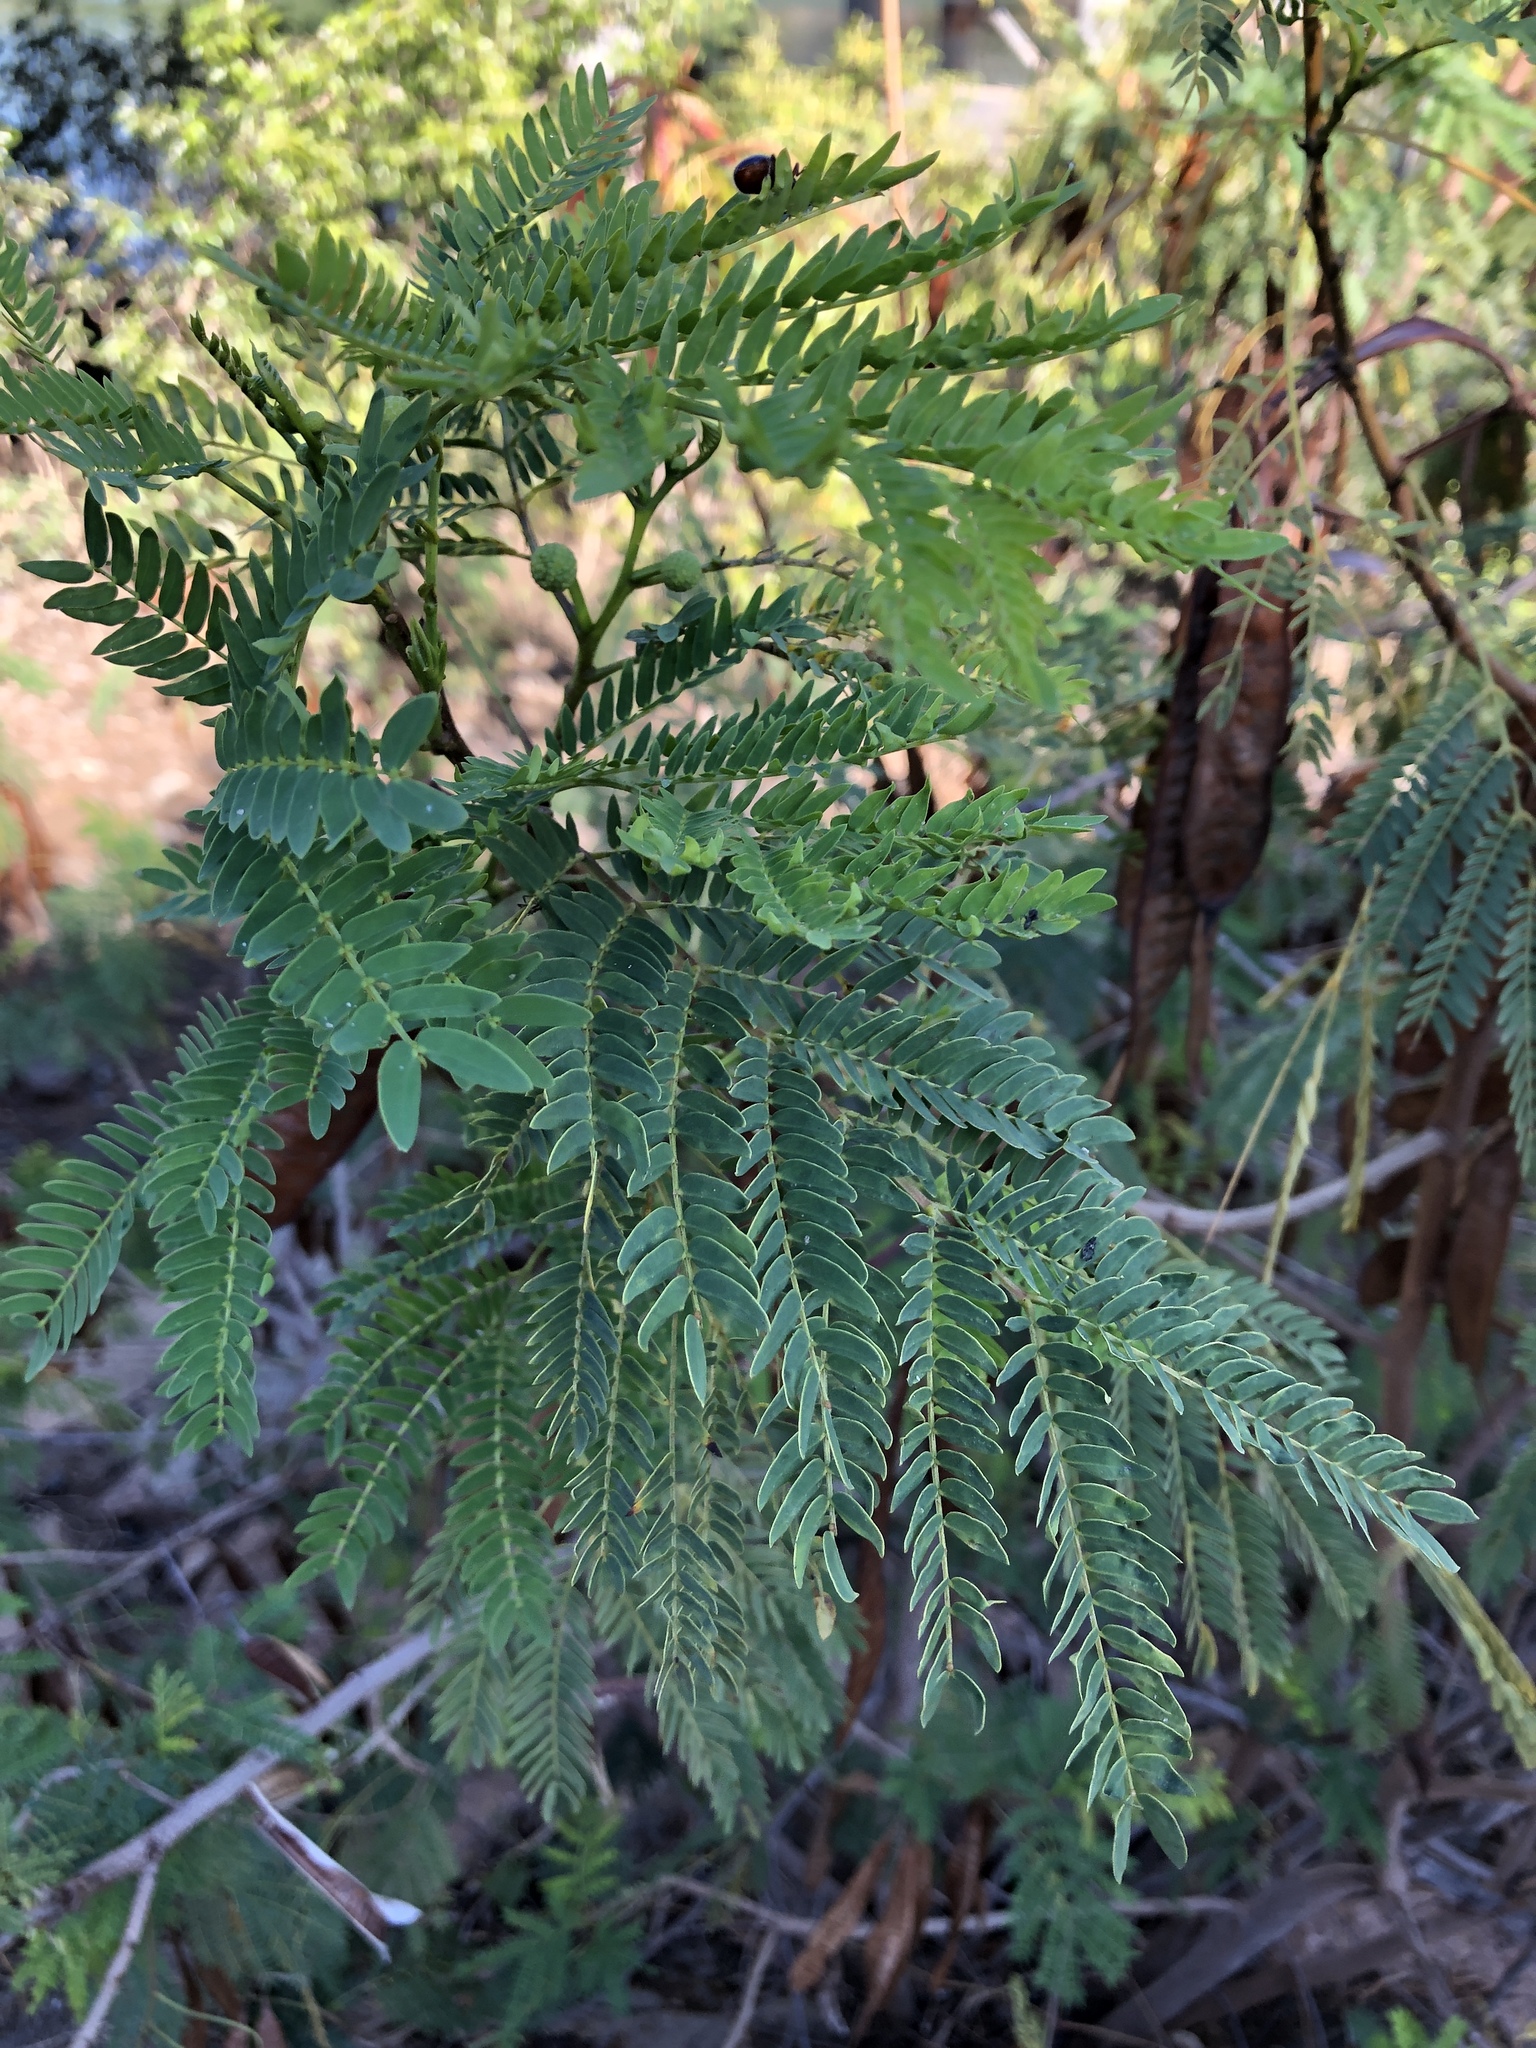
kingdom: Plantae
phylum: Tracheophyta
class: Magnoliopsida
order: Fabales
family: Fabaceae
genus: Leucaena
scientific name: Leucaena leucocephala
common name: White leadtree
